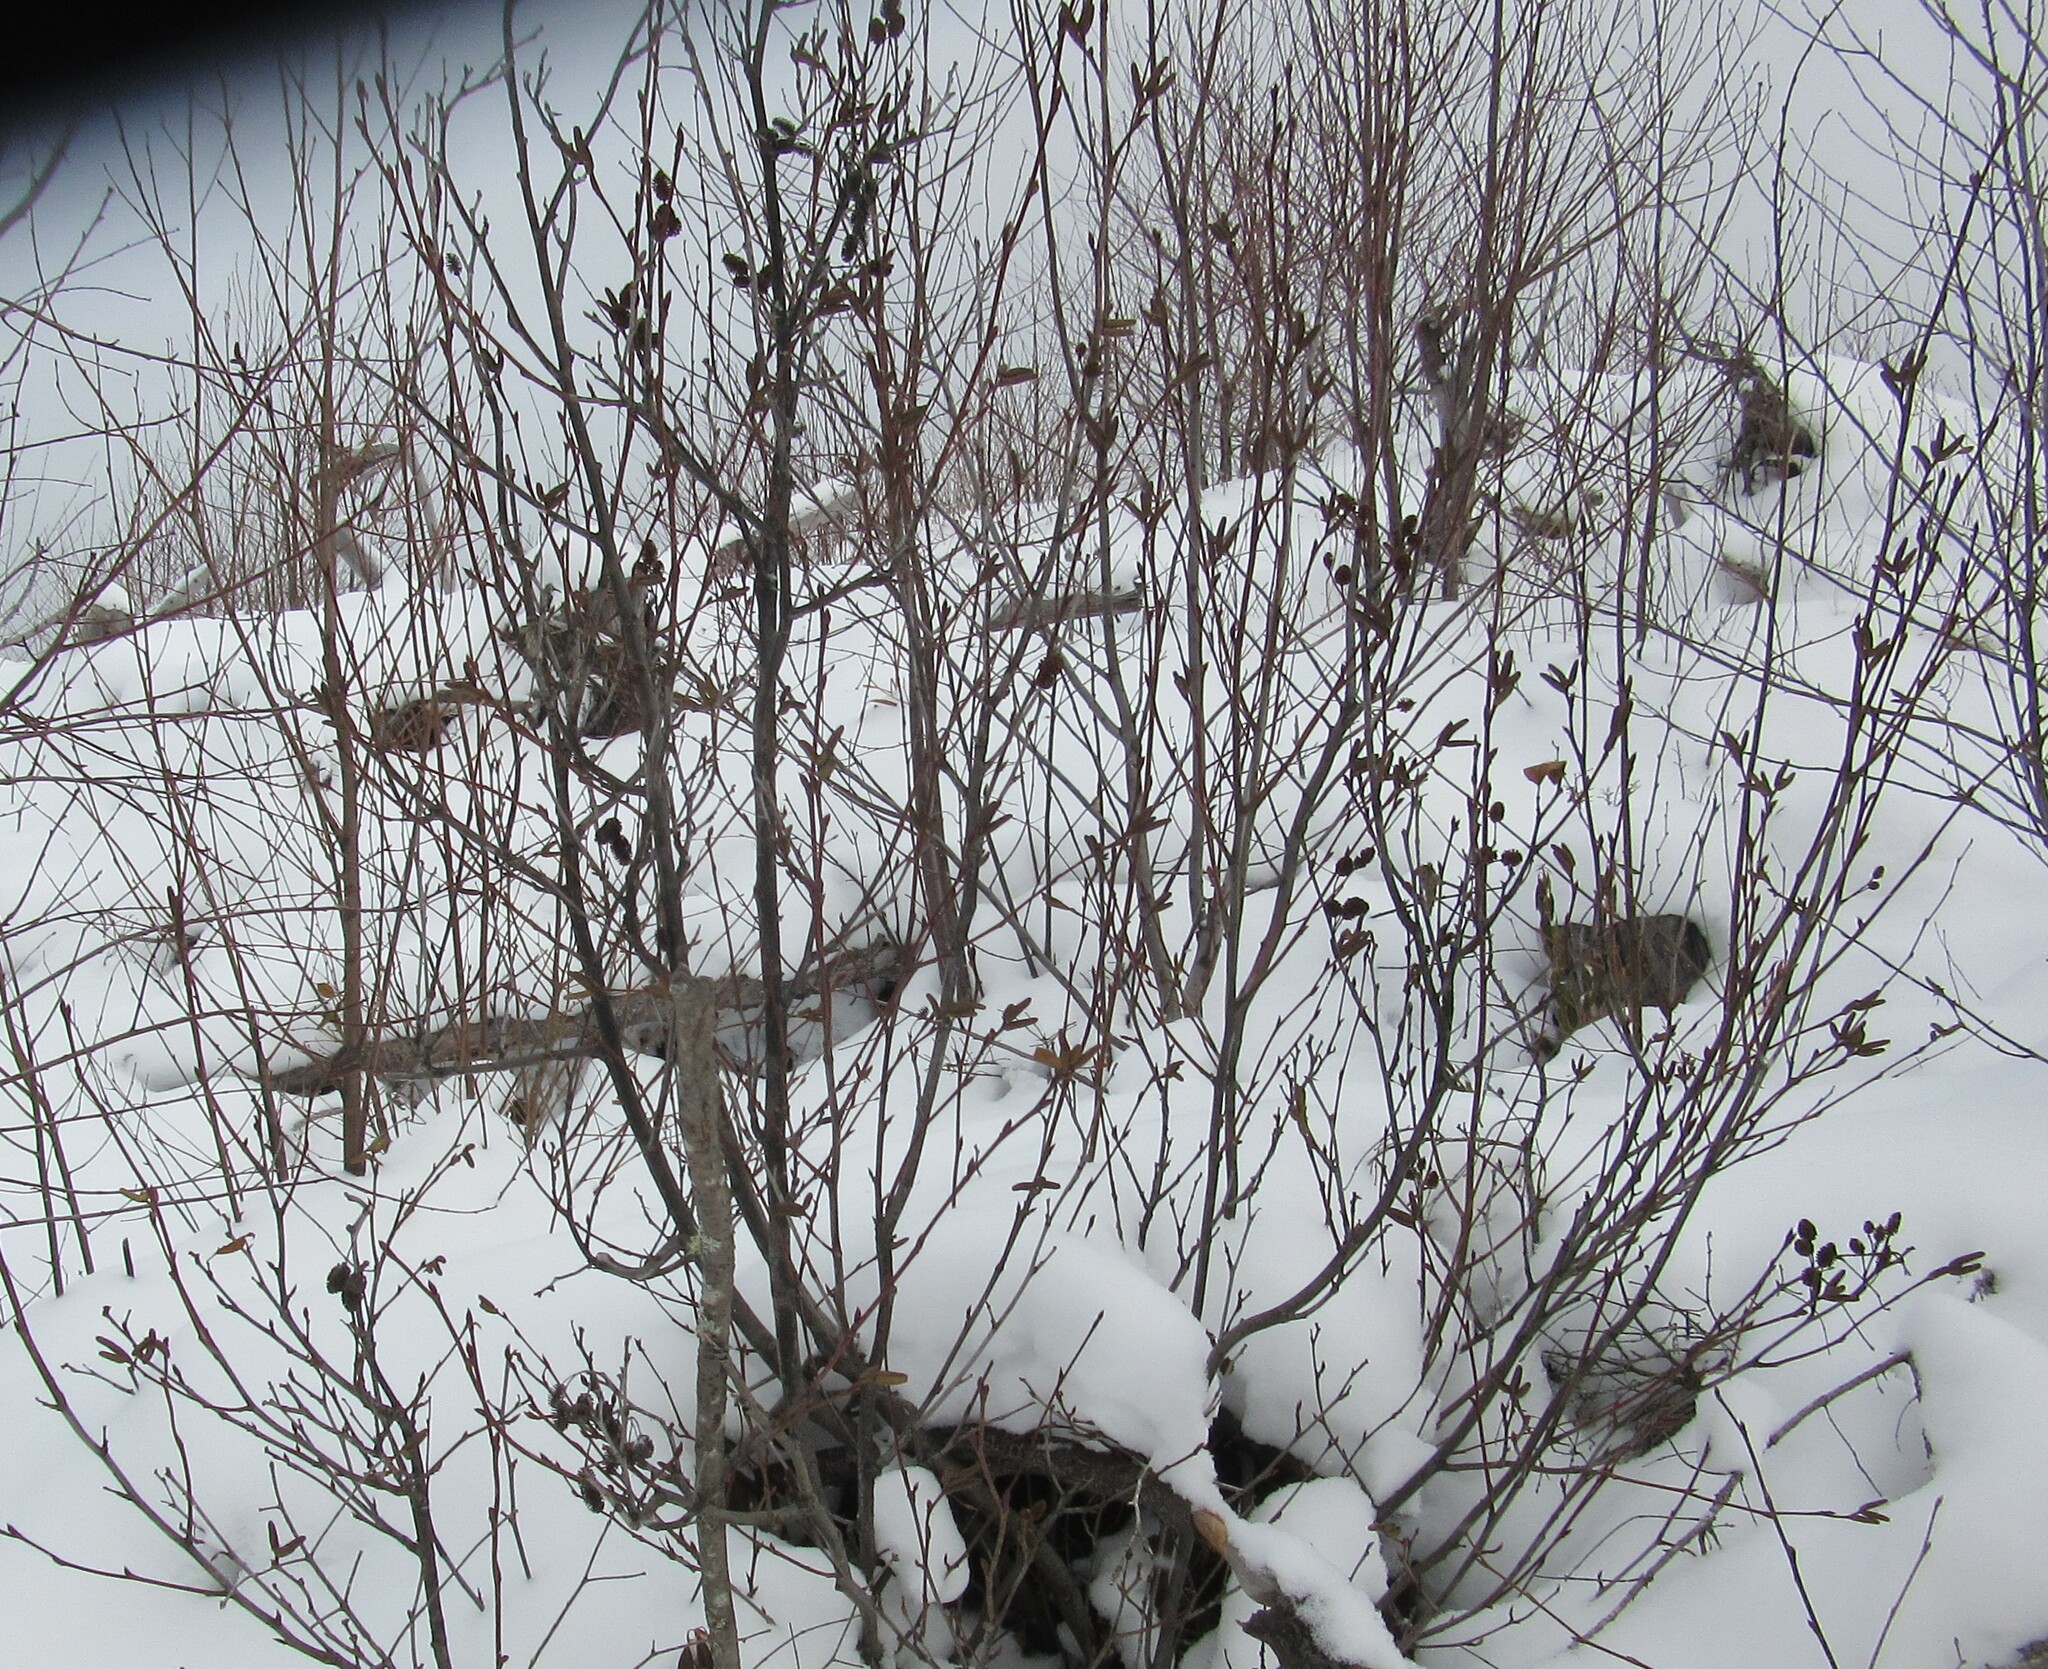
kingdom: Plantae
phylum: Tracheophyta
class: Magnoliopsida
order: Fagales
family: Betulaceae
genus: Alnus
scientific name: Alnus alnobetula
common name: Green alder
